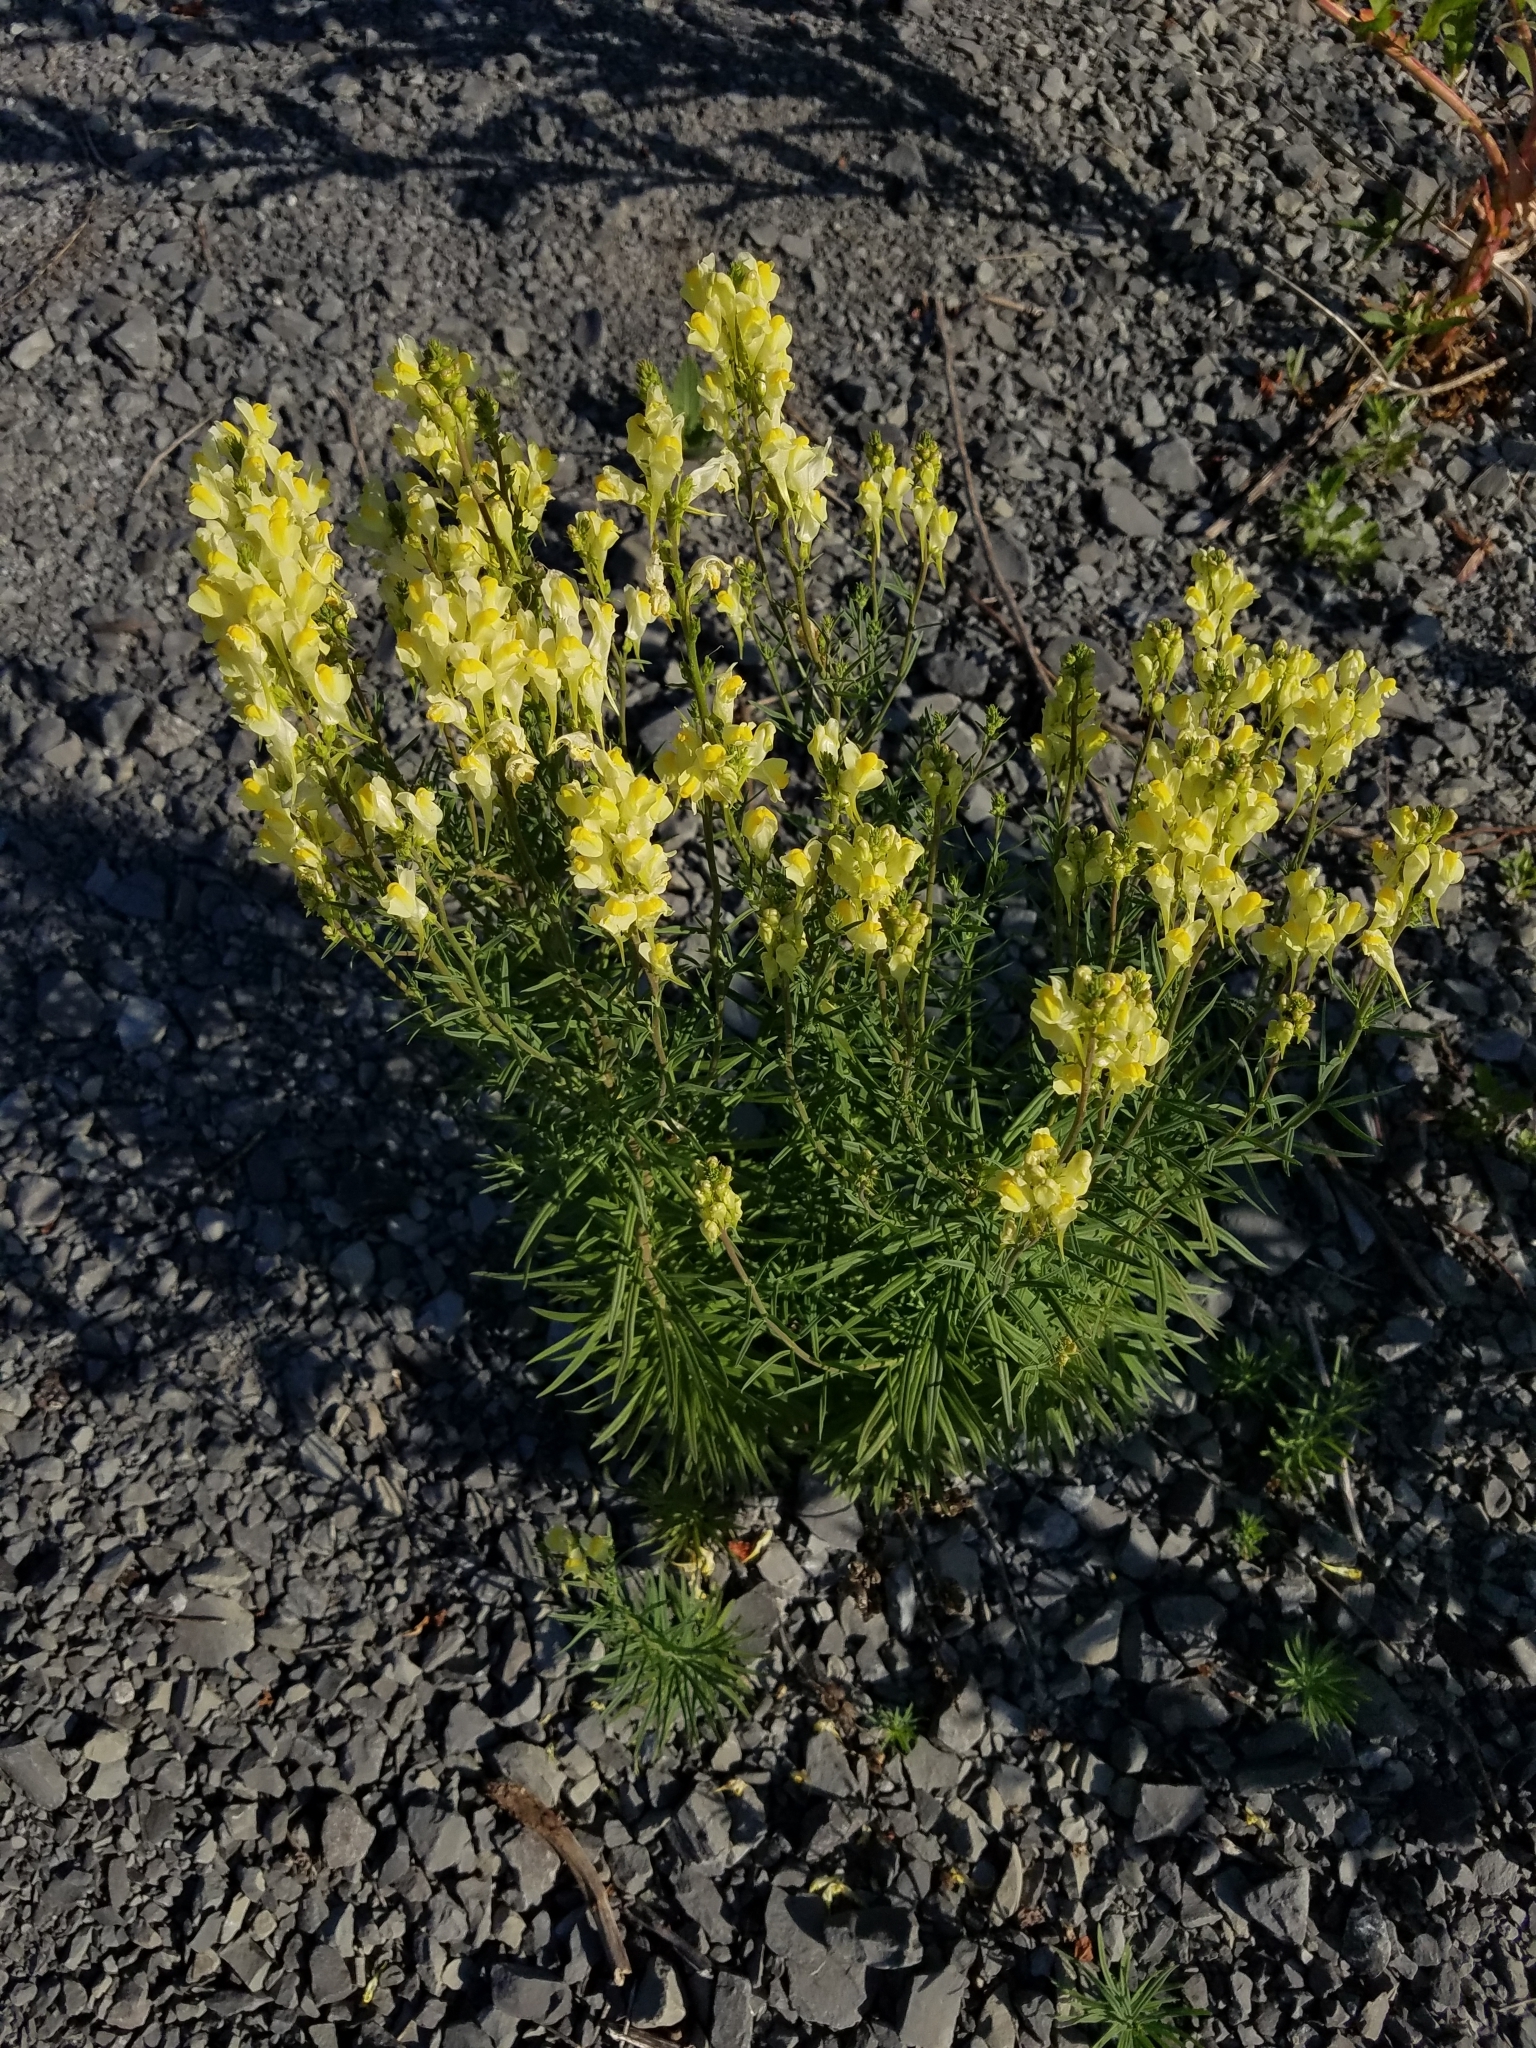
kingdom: Plantae
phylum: Tracheophyta
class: Magnoliopsida
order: Lamiales
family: Plantaginaceae
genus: Linaria
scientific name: Linaria vulgaris
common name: Butter and eggs
